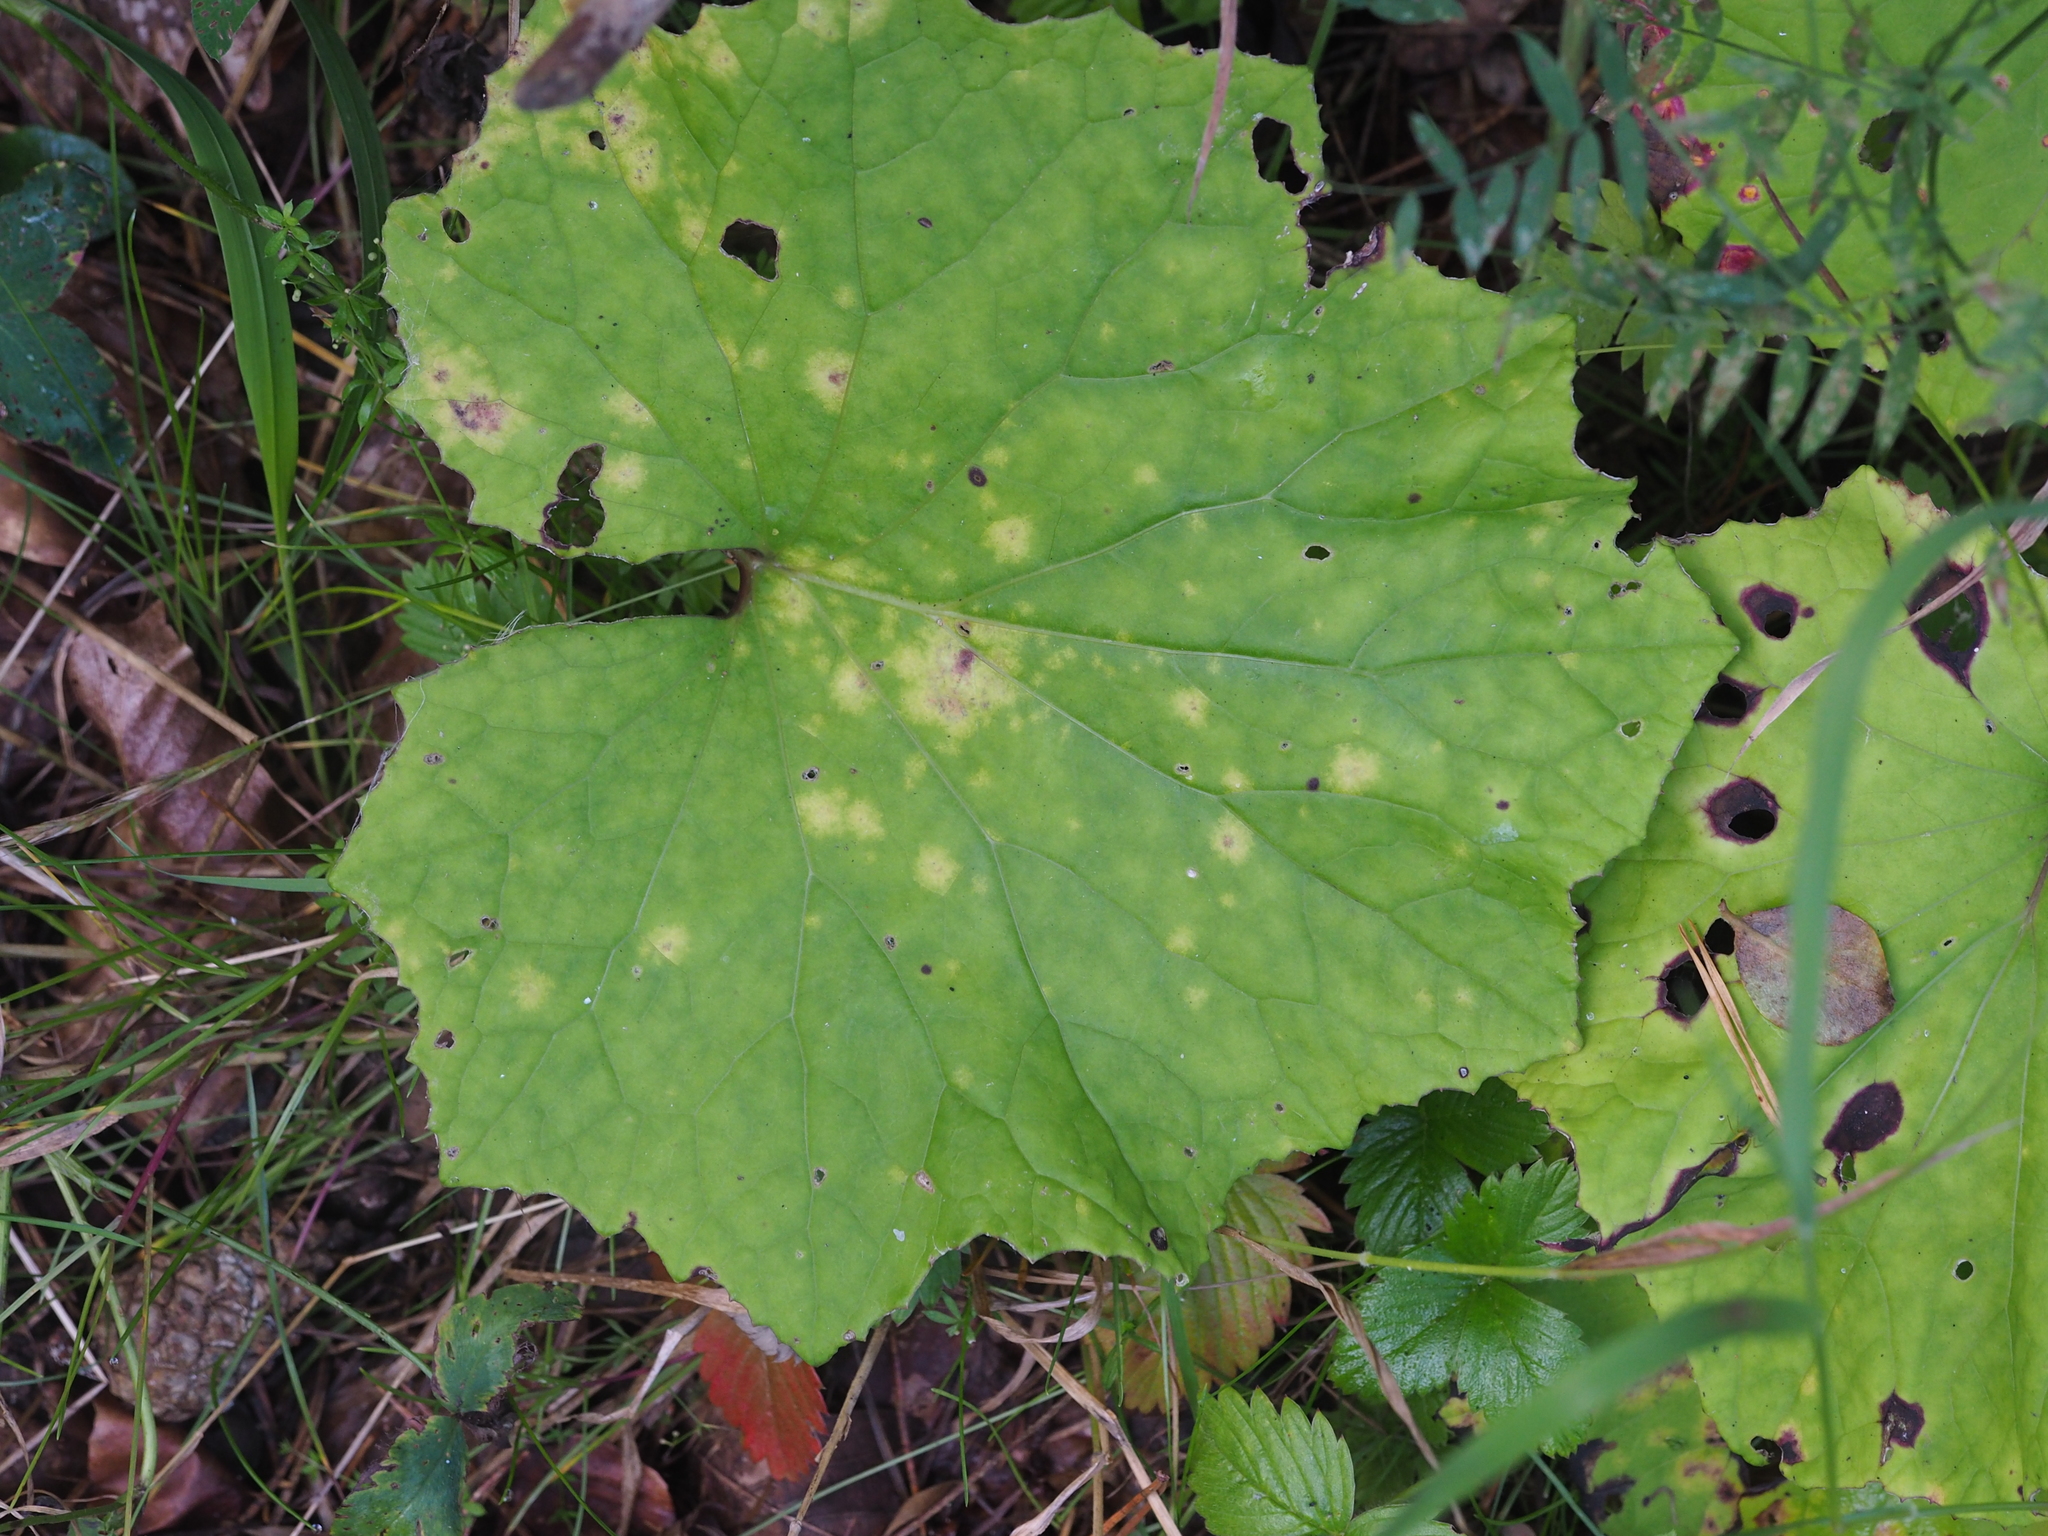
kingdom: Fungi
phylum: Basidiomycota
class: Pucciniomycetes
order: Pucciniales
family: Coleosporiaceae
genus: Coleosporium
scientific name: Coleosporium tussilaginis
